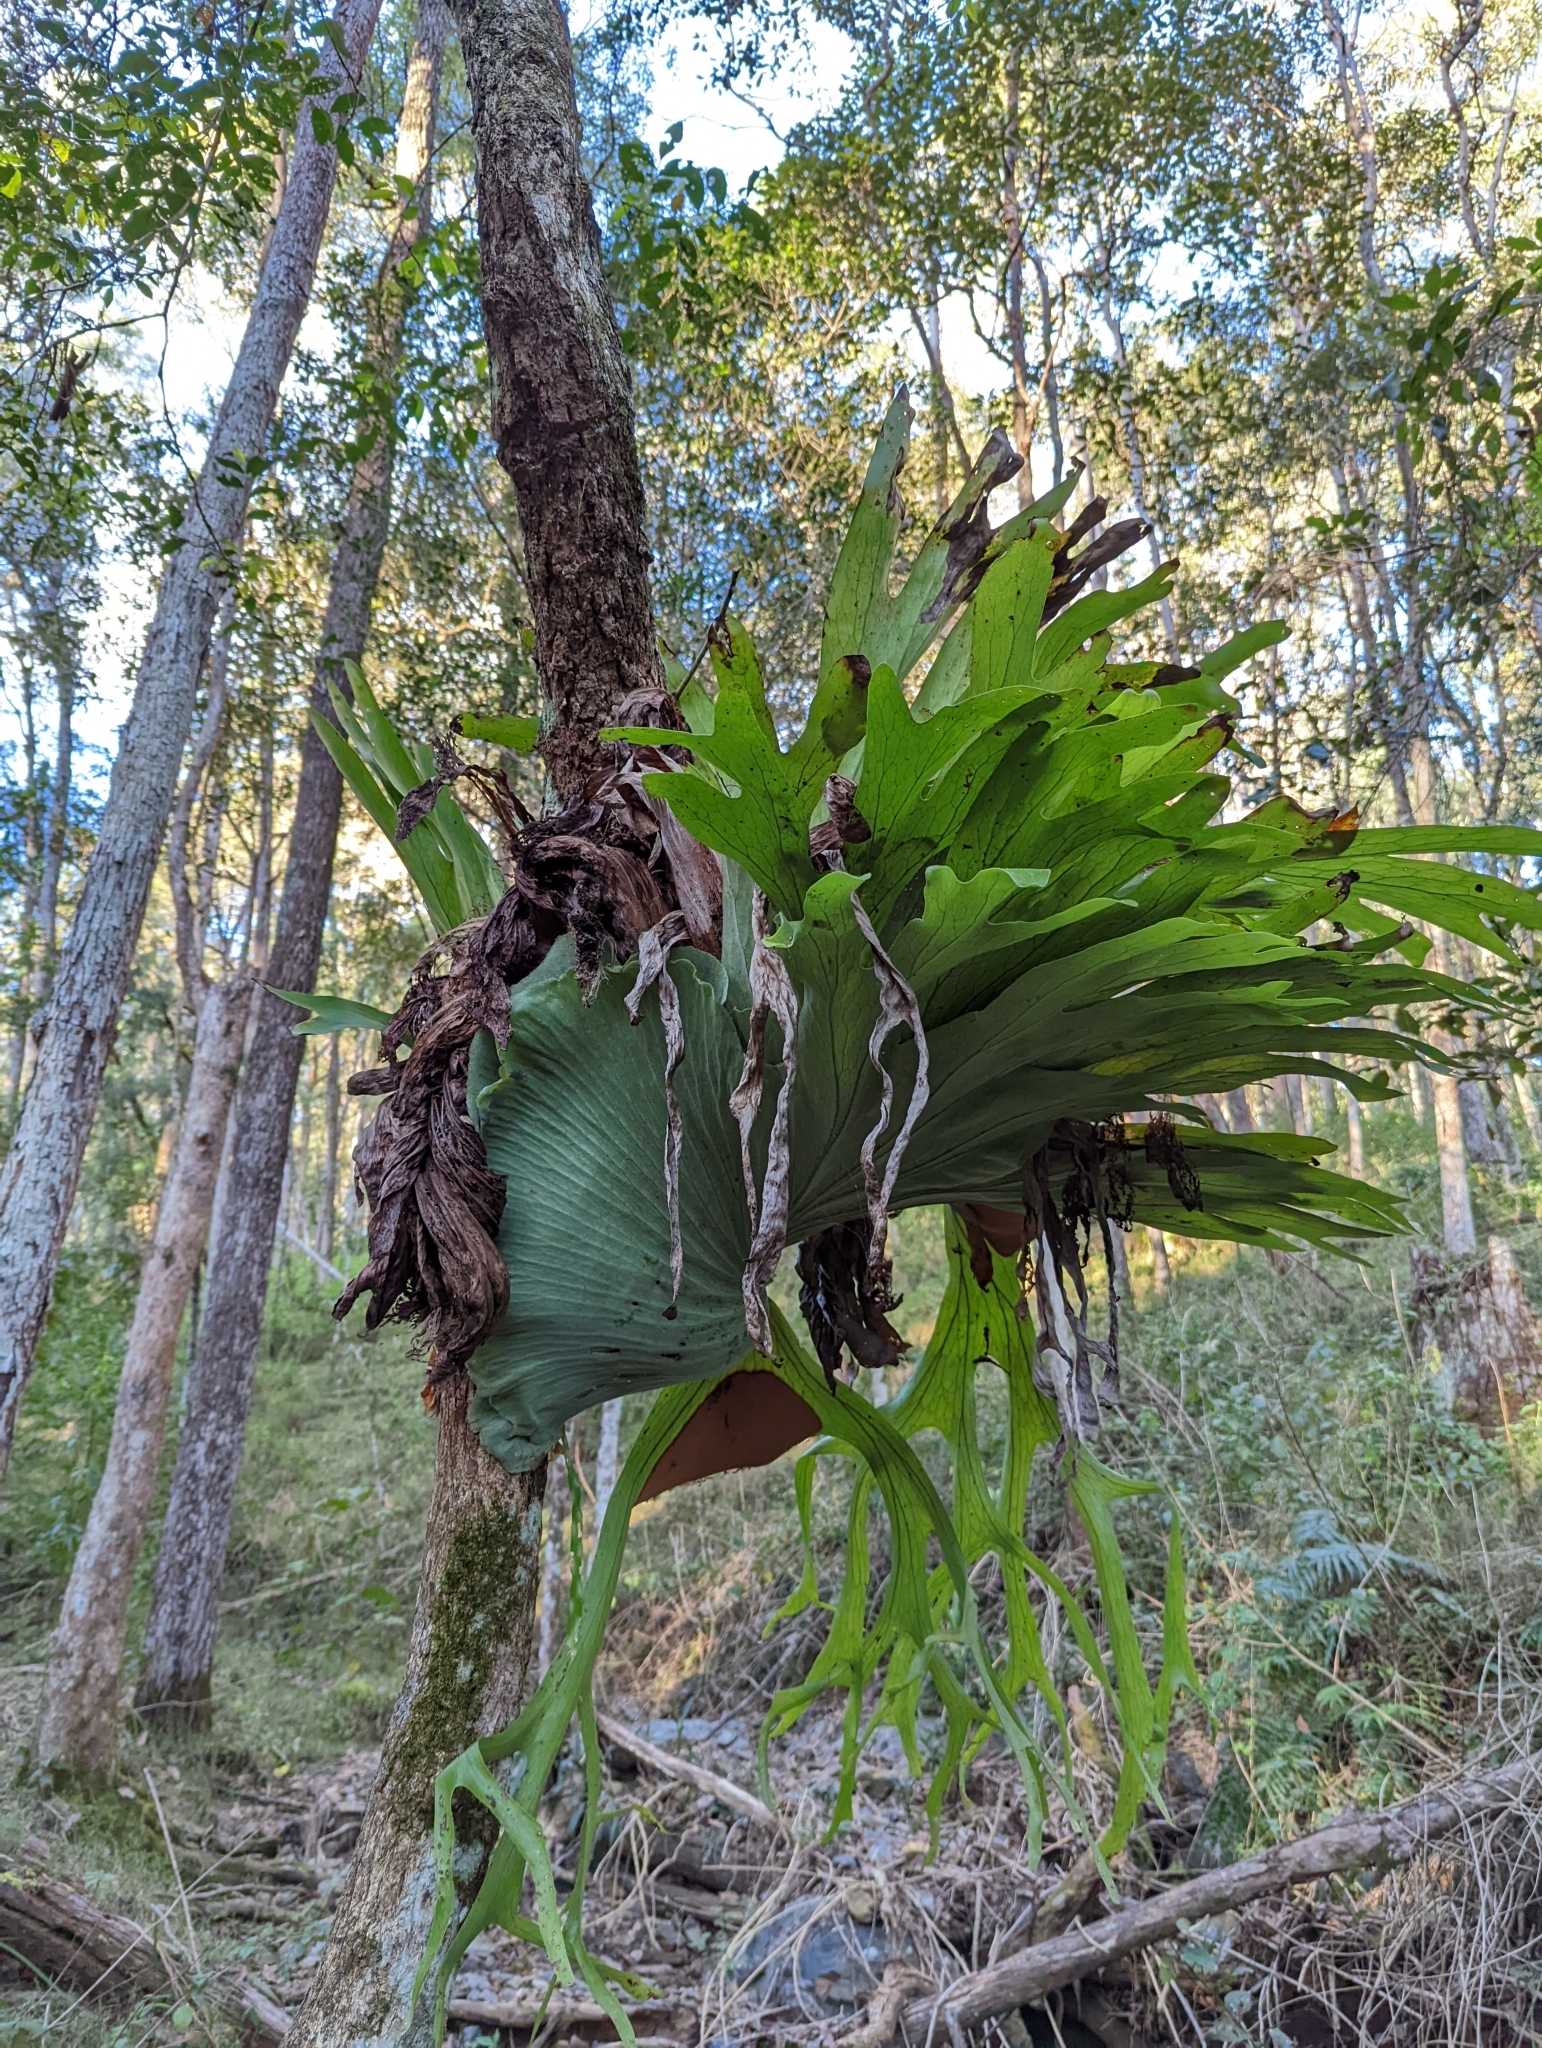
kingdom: Plantae
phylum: Tracheophyta
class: Polypodiopsida
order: Polypodiales
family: Polypodiaceae
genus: Platycerium
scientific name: Platycerium superbum
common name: Staghorn fern
